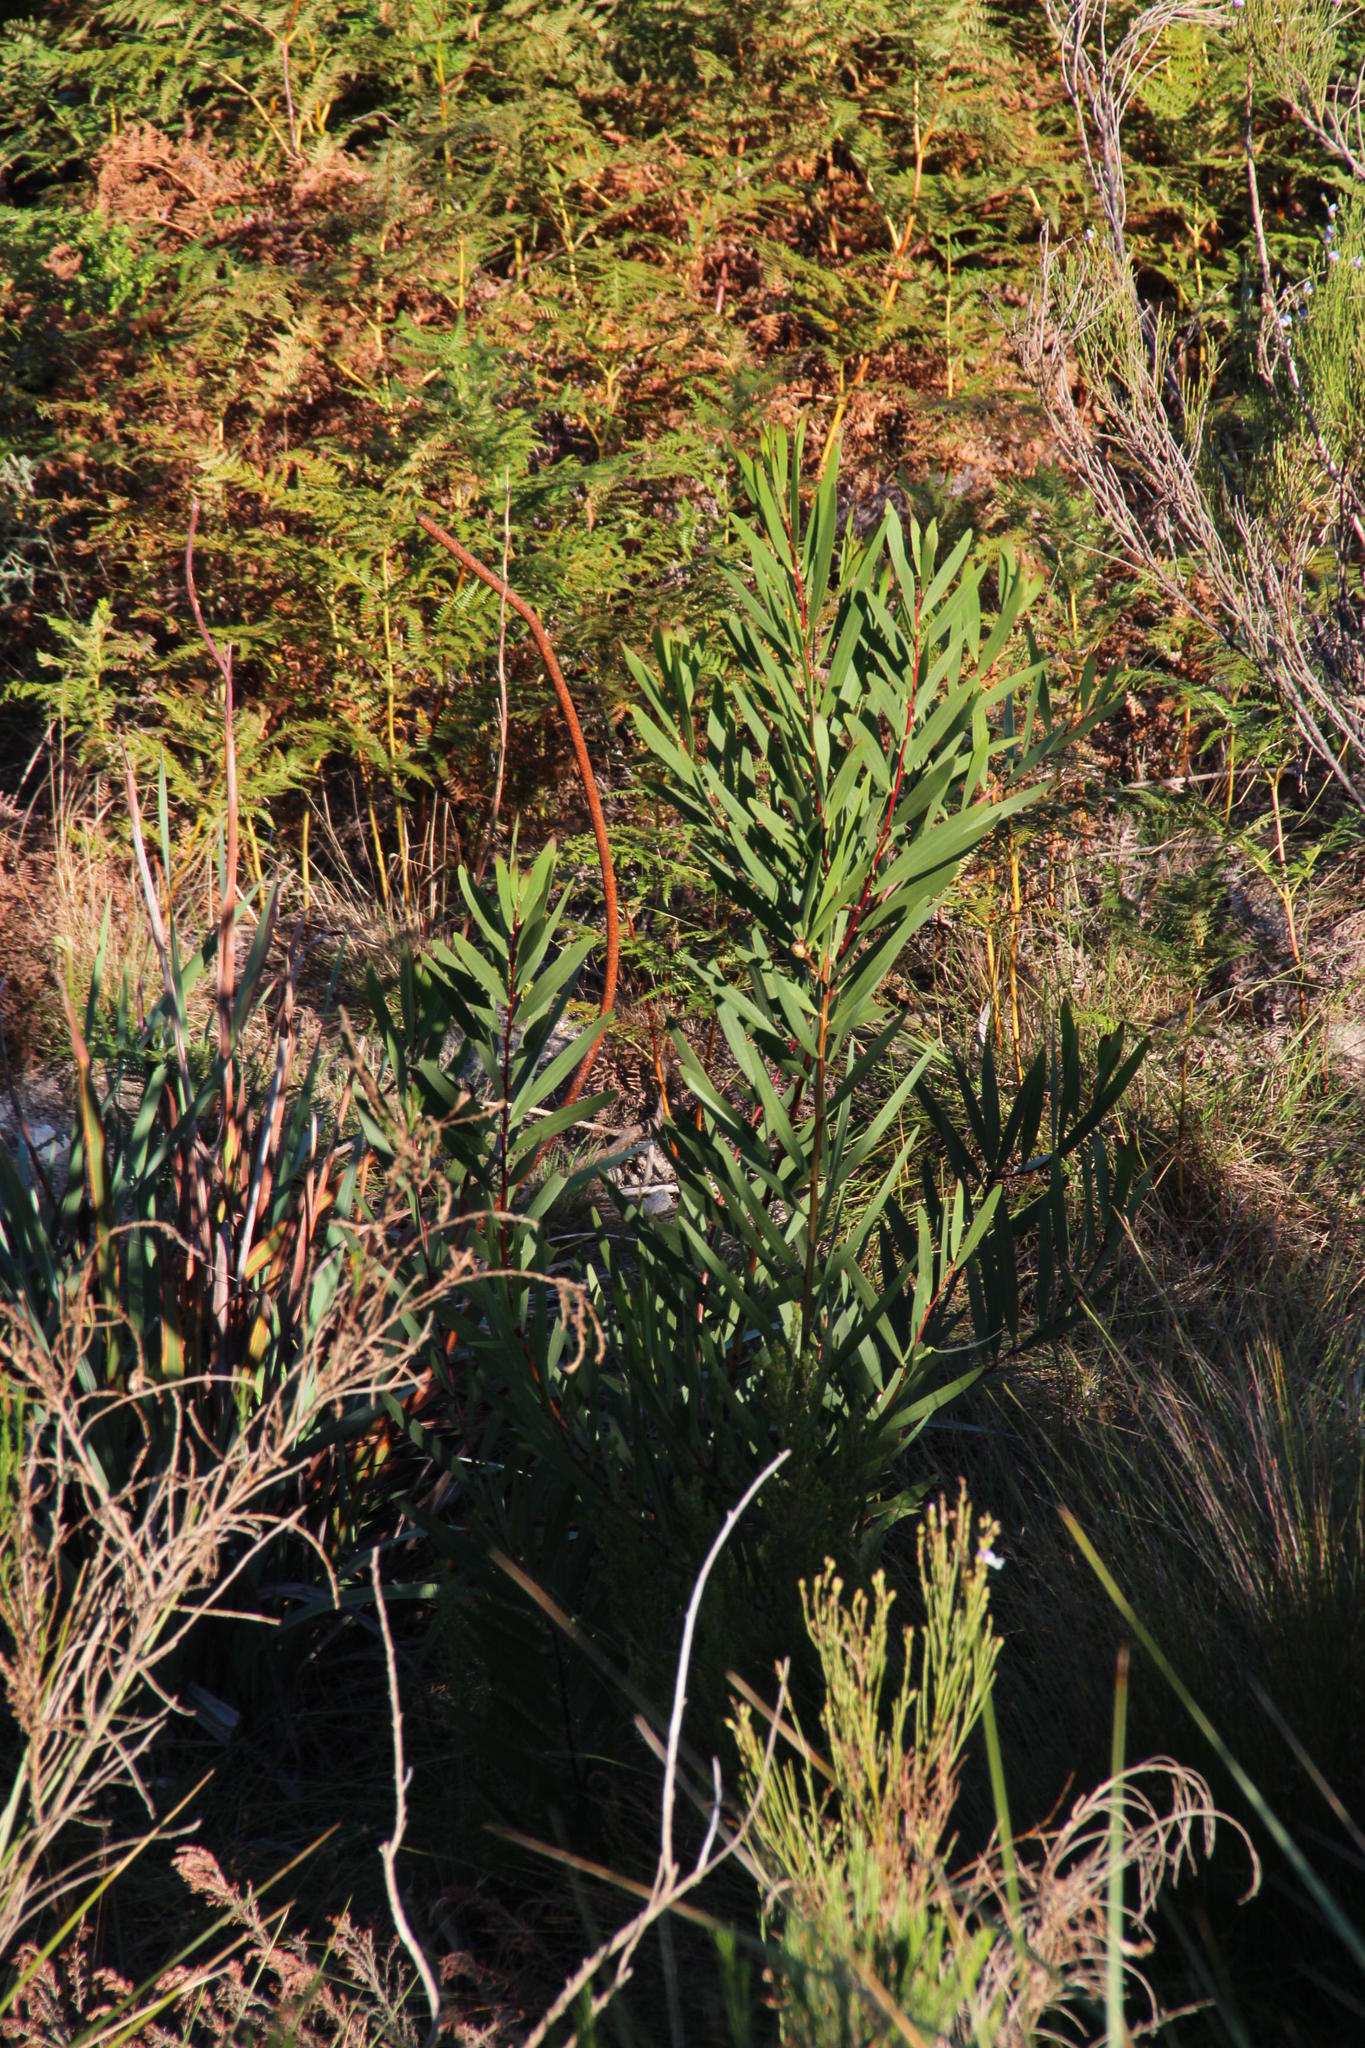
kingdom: Plantae
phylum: Tracheophyta
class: Magnoliopsida
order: Fabales
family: Fabaceae
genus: Acacia
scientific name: Acacia longifolia
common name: Sydney golden wattle
